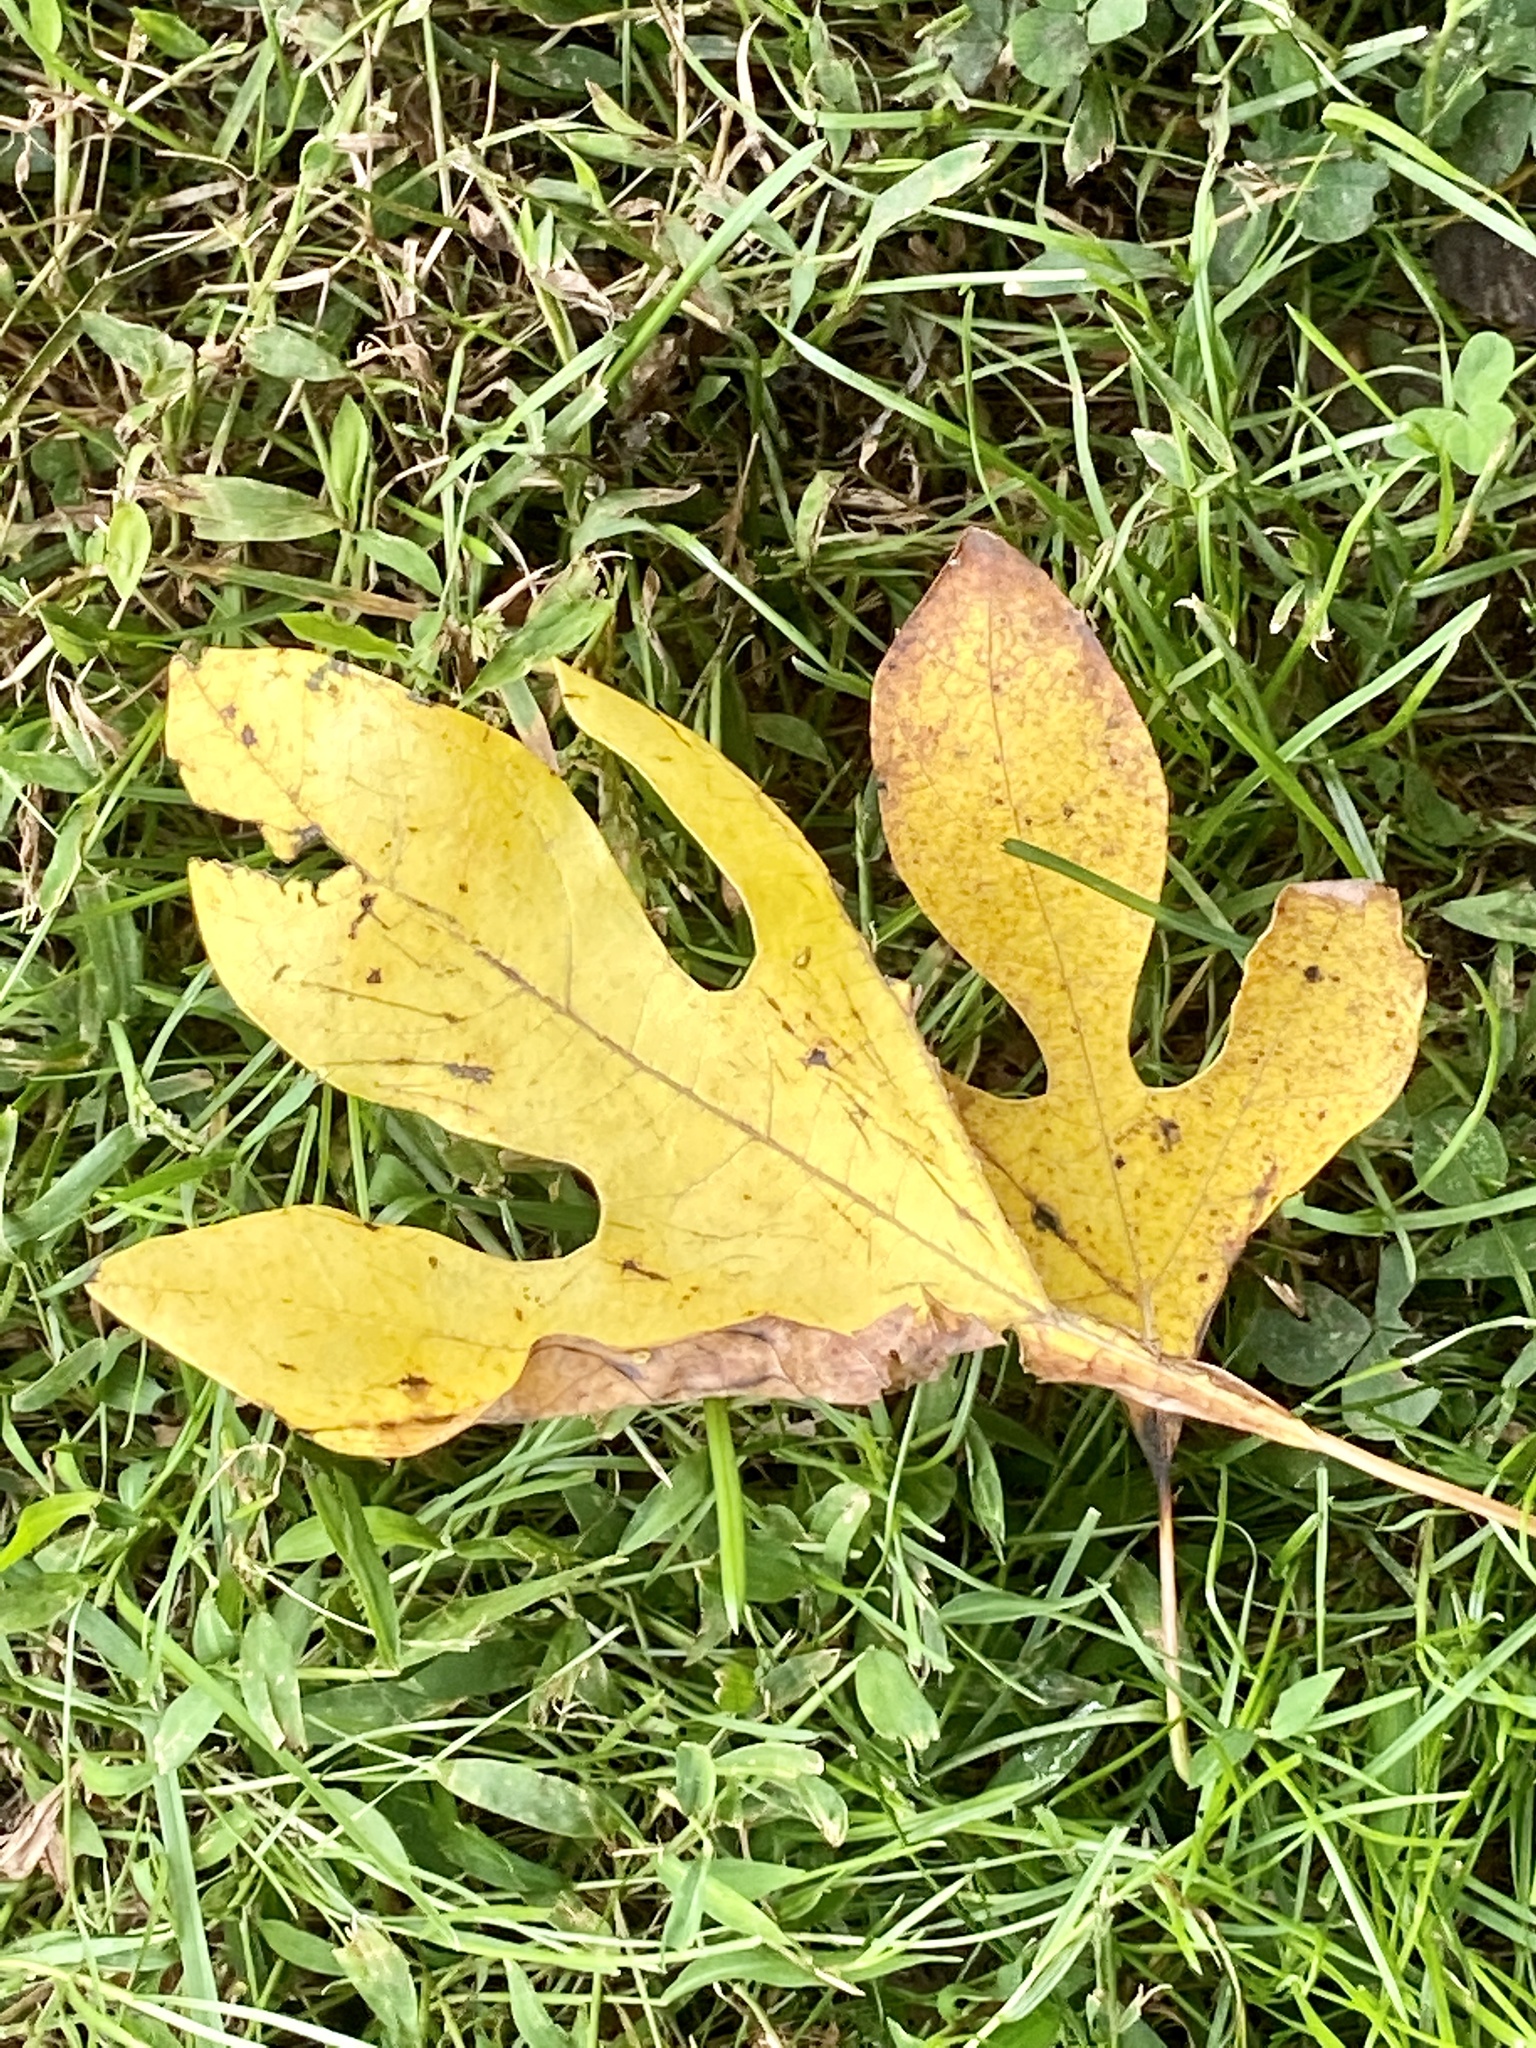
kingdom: Plantae
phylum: Tracheophyta
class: Magnoliopsida
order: Laurales
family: Lauraceae
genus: Sassafras
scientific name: Sassafras albidum
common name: Sassafras
